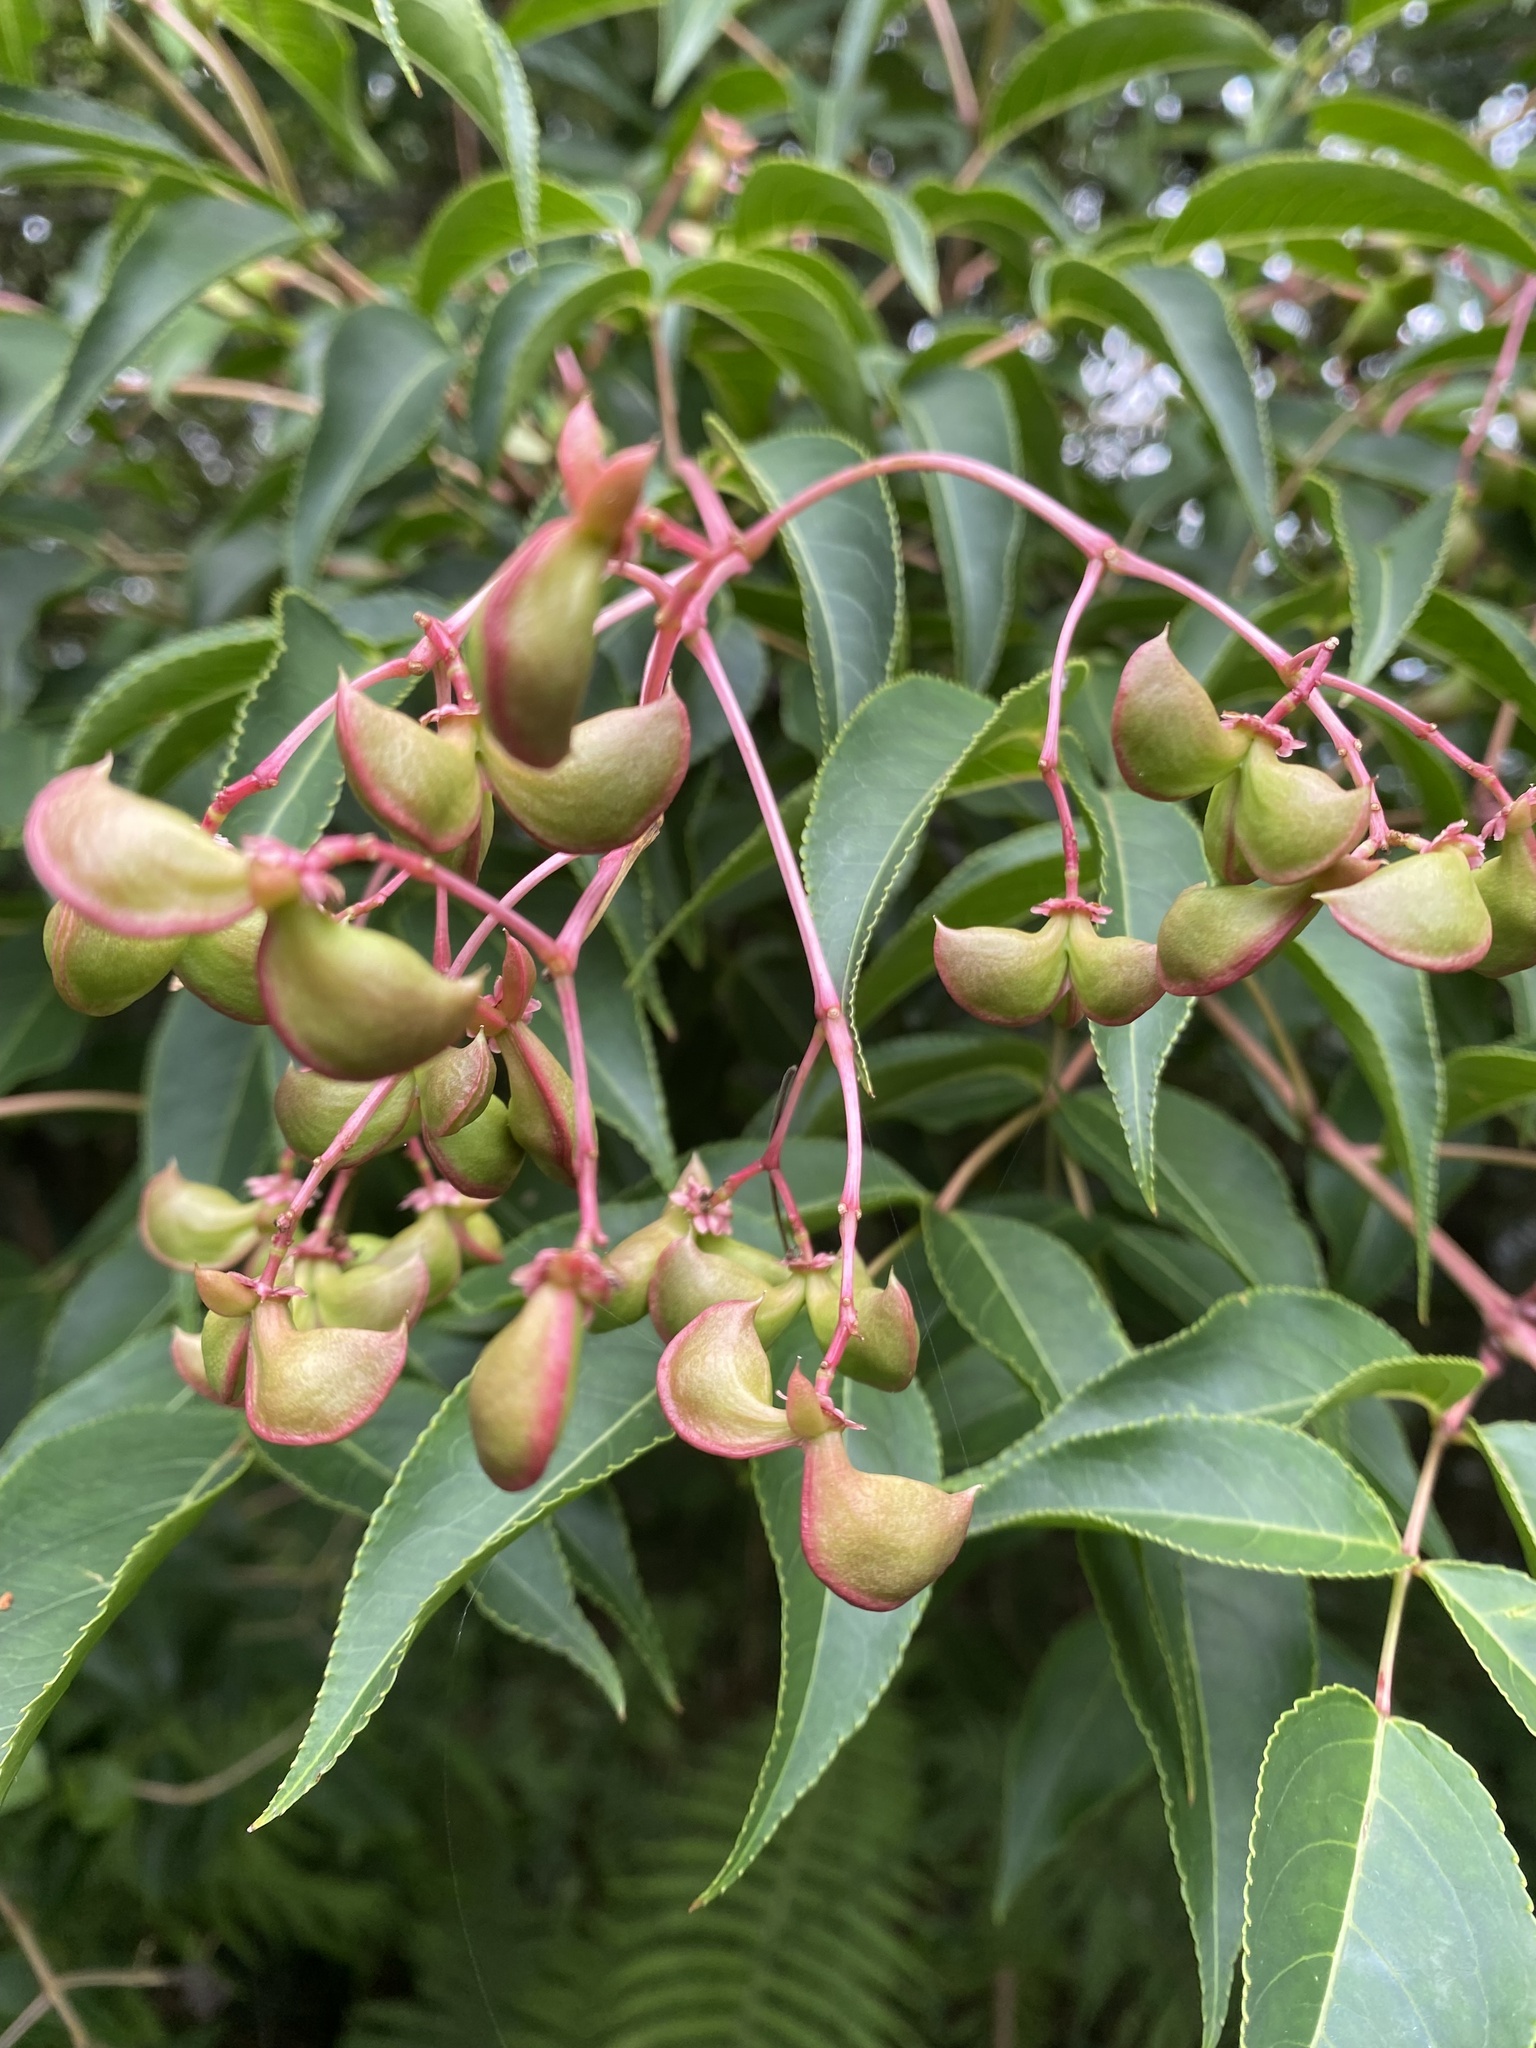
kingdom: Plantae
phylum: Tracheophyta
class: Magnoliopsida
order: Crossosomatales
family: Staphyleaceae
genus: Staphylea
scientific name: Staphylea japonica
